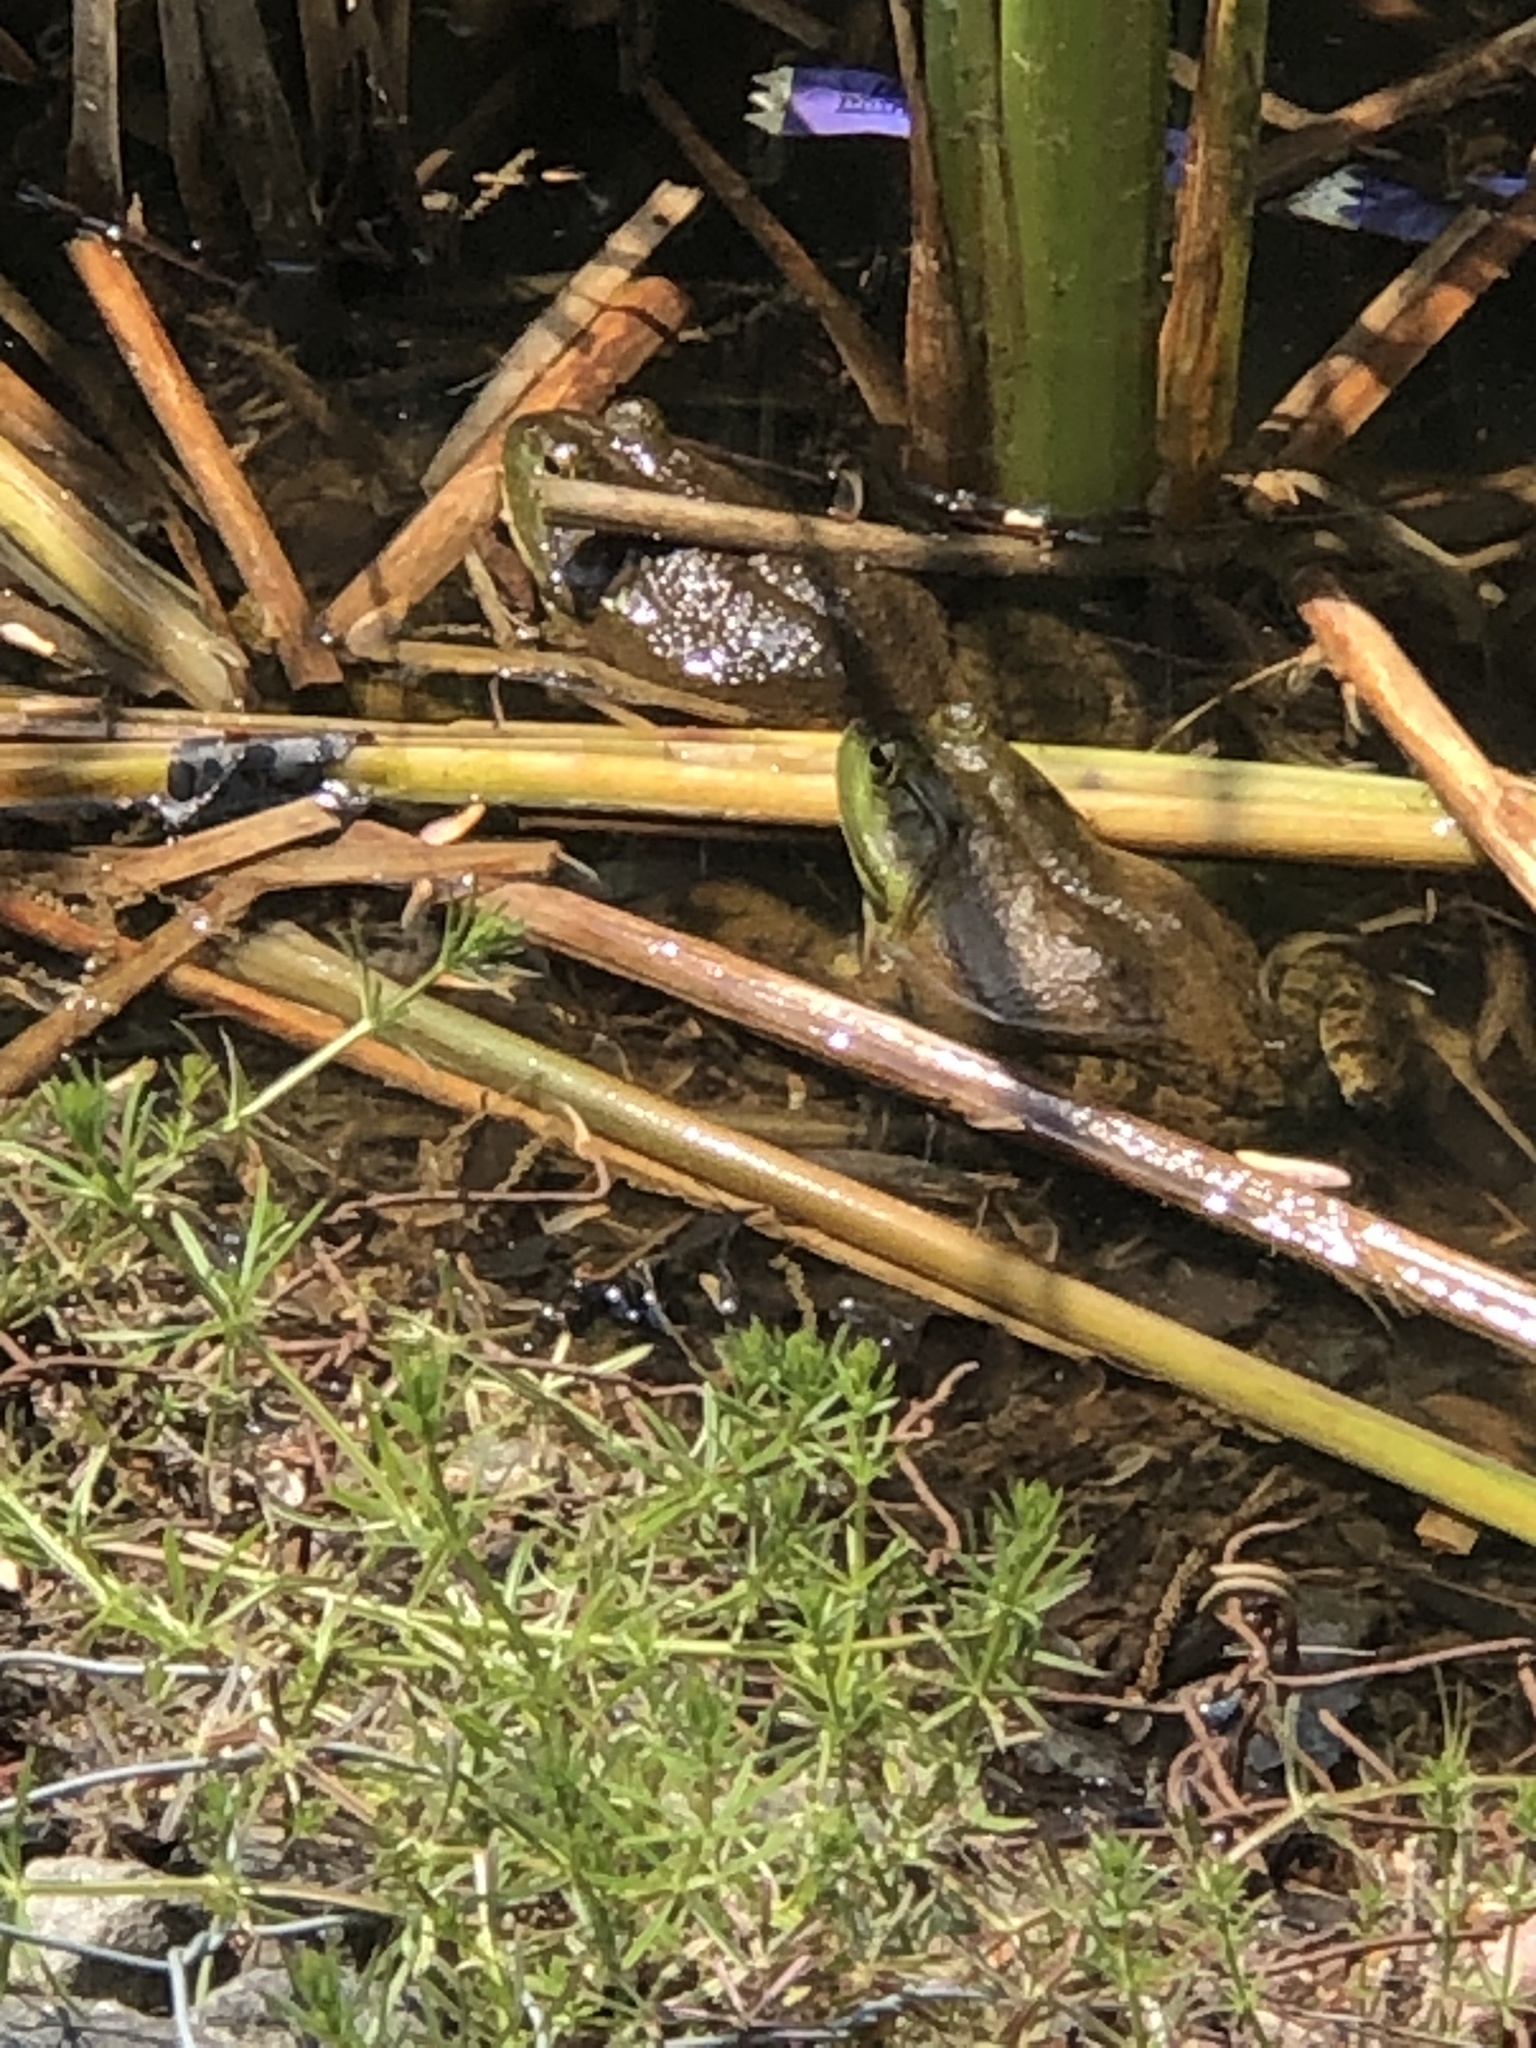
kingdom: Animalia
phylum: Chordata
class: Amphibia
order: Anura
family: Ranidae
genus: Lithobates
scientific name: Lithobates catesbeianus
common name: American bullfrog
